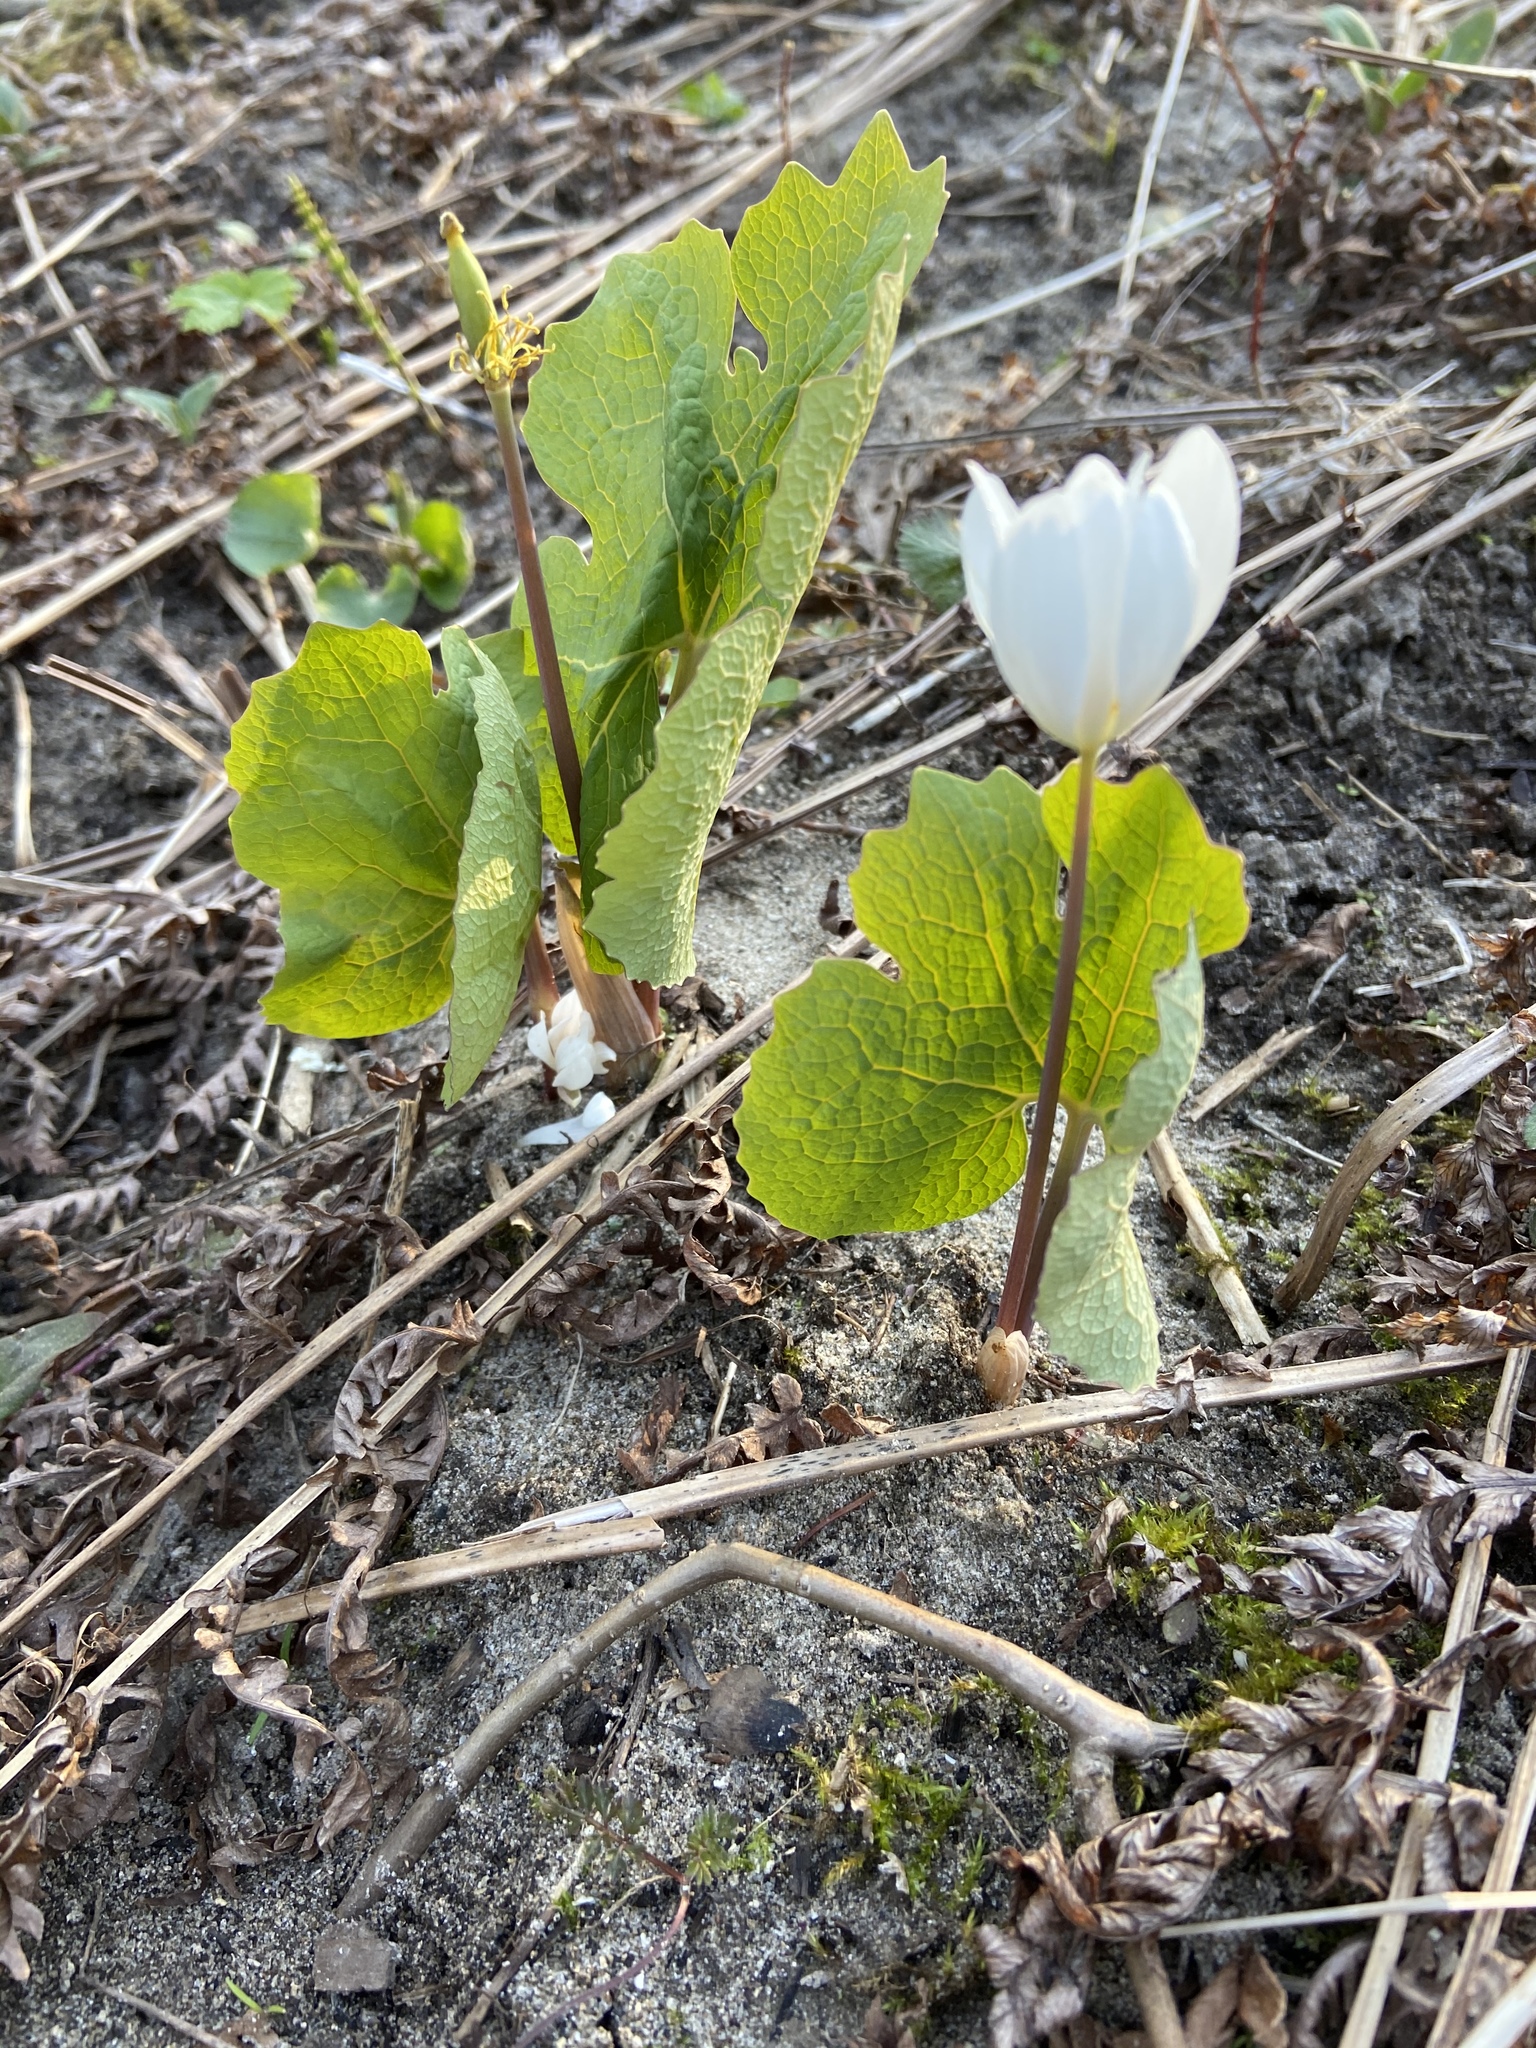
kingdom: Plantae
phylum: Tracheophyta
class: Magnoliopsida
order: Ranunculales
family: Papaveraceae
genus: Sanguinaria
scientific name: Sanguinaria canadensis
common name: Bloodroot
